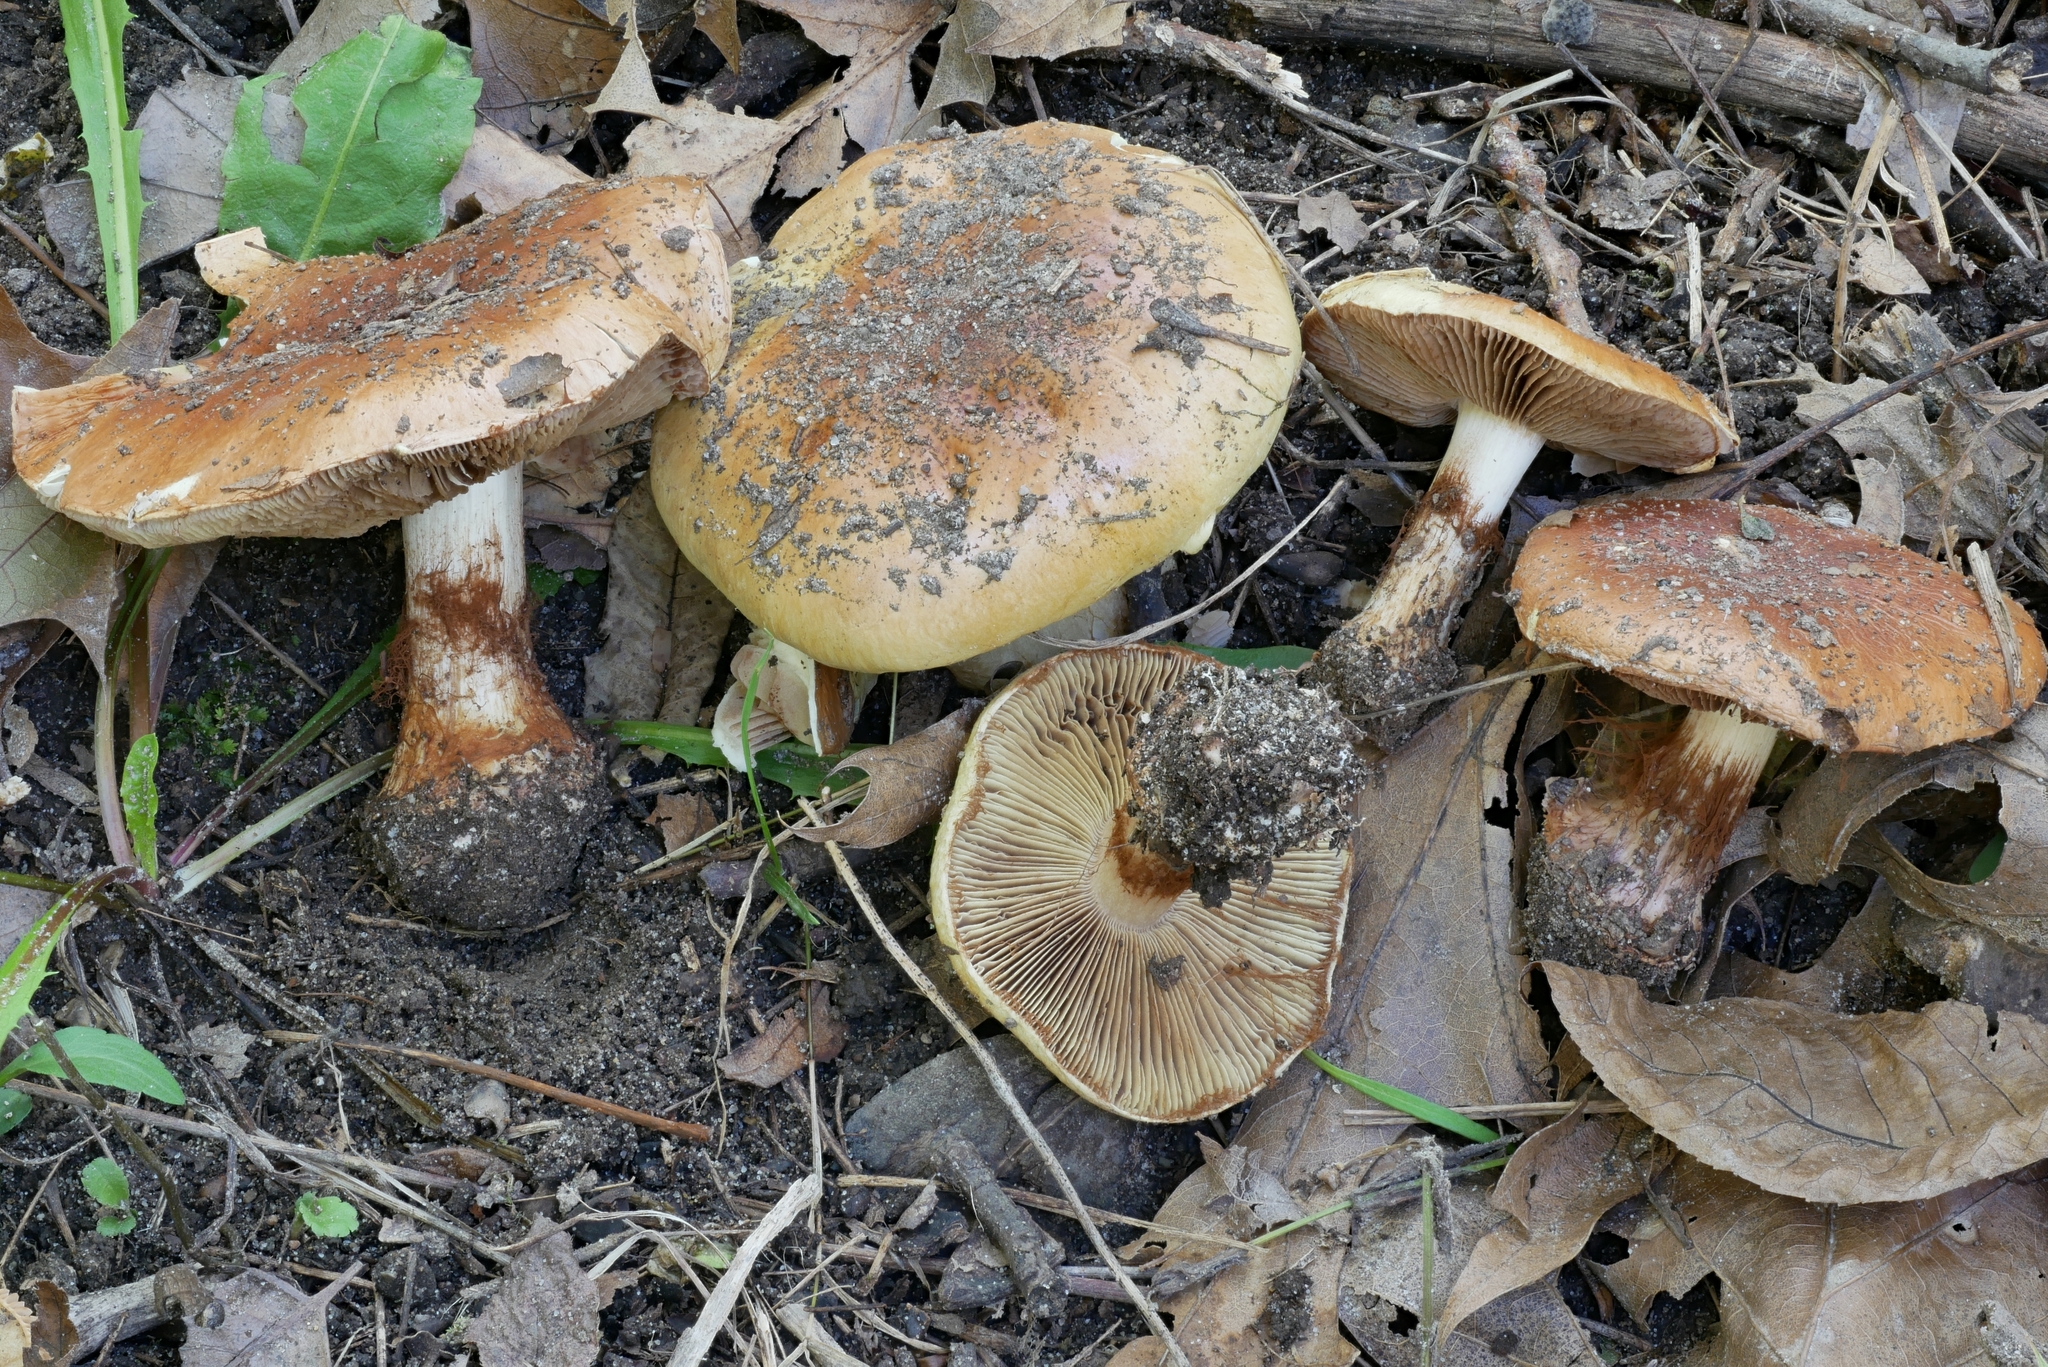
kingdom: Fungi
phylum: Basidiomycota
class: Agaricomycetes
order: Agaricales
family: Cortinariaceae
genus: Cortinarius
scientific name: Cortinarius atkinsonianus
